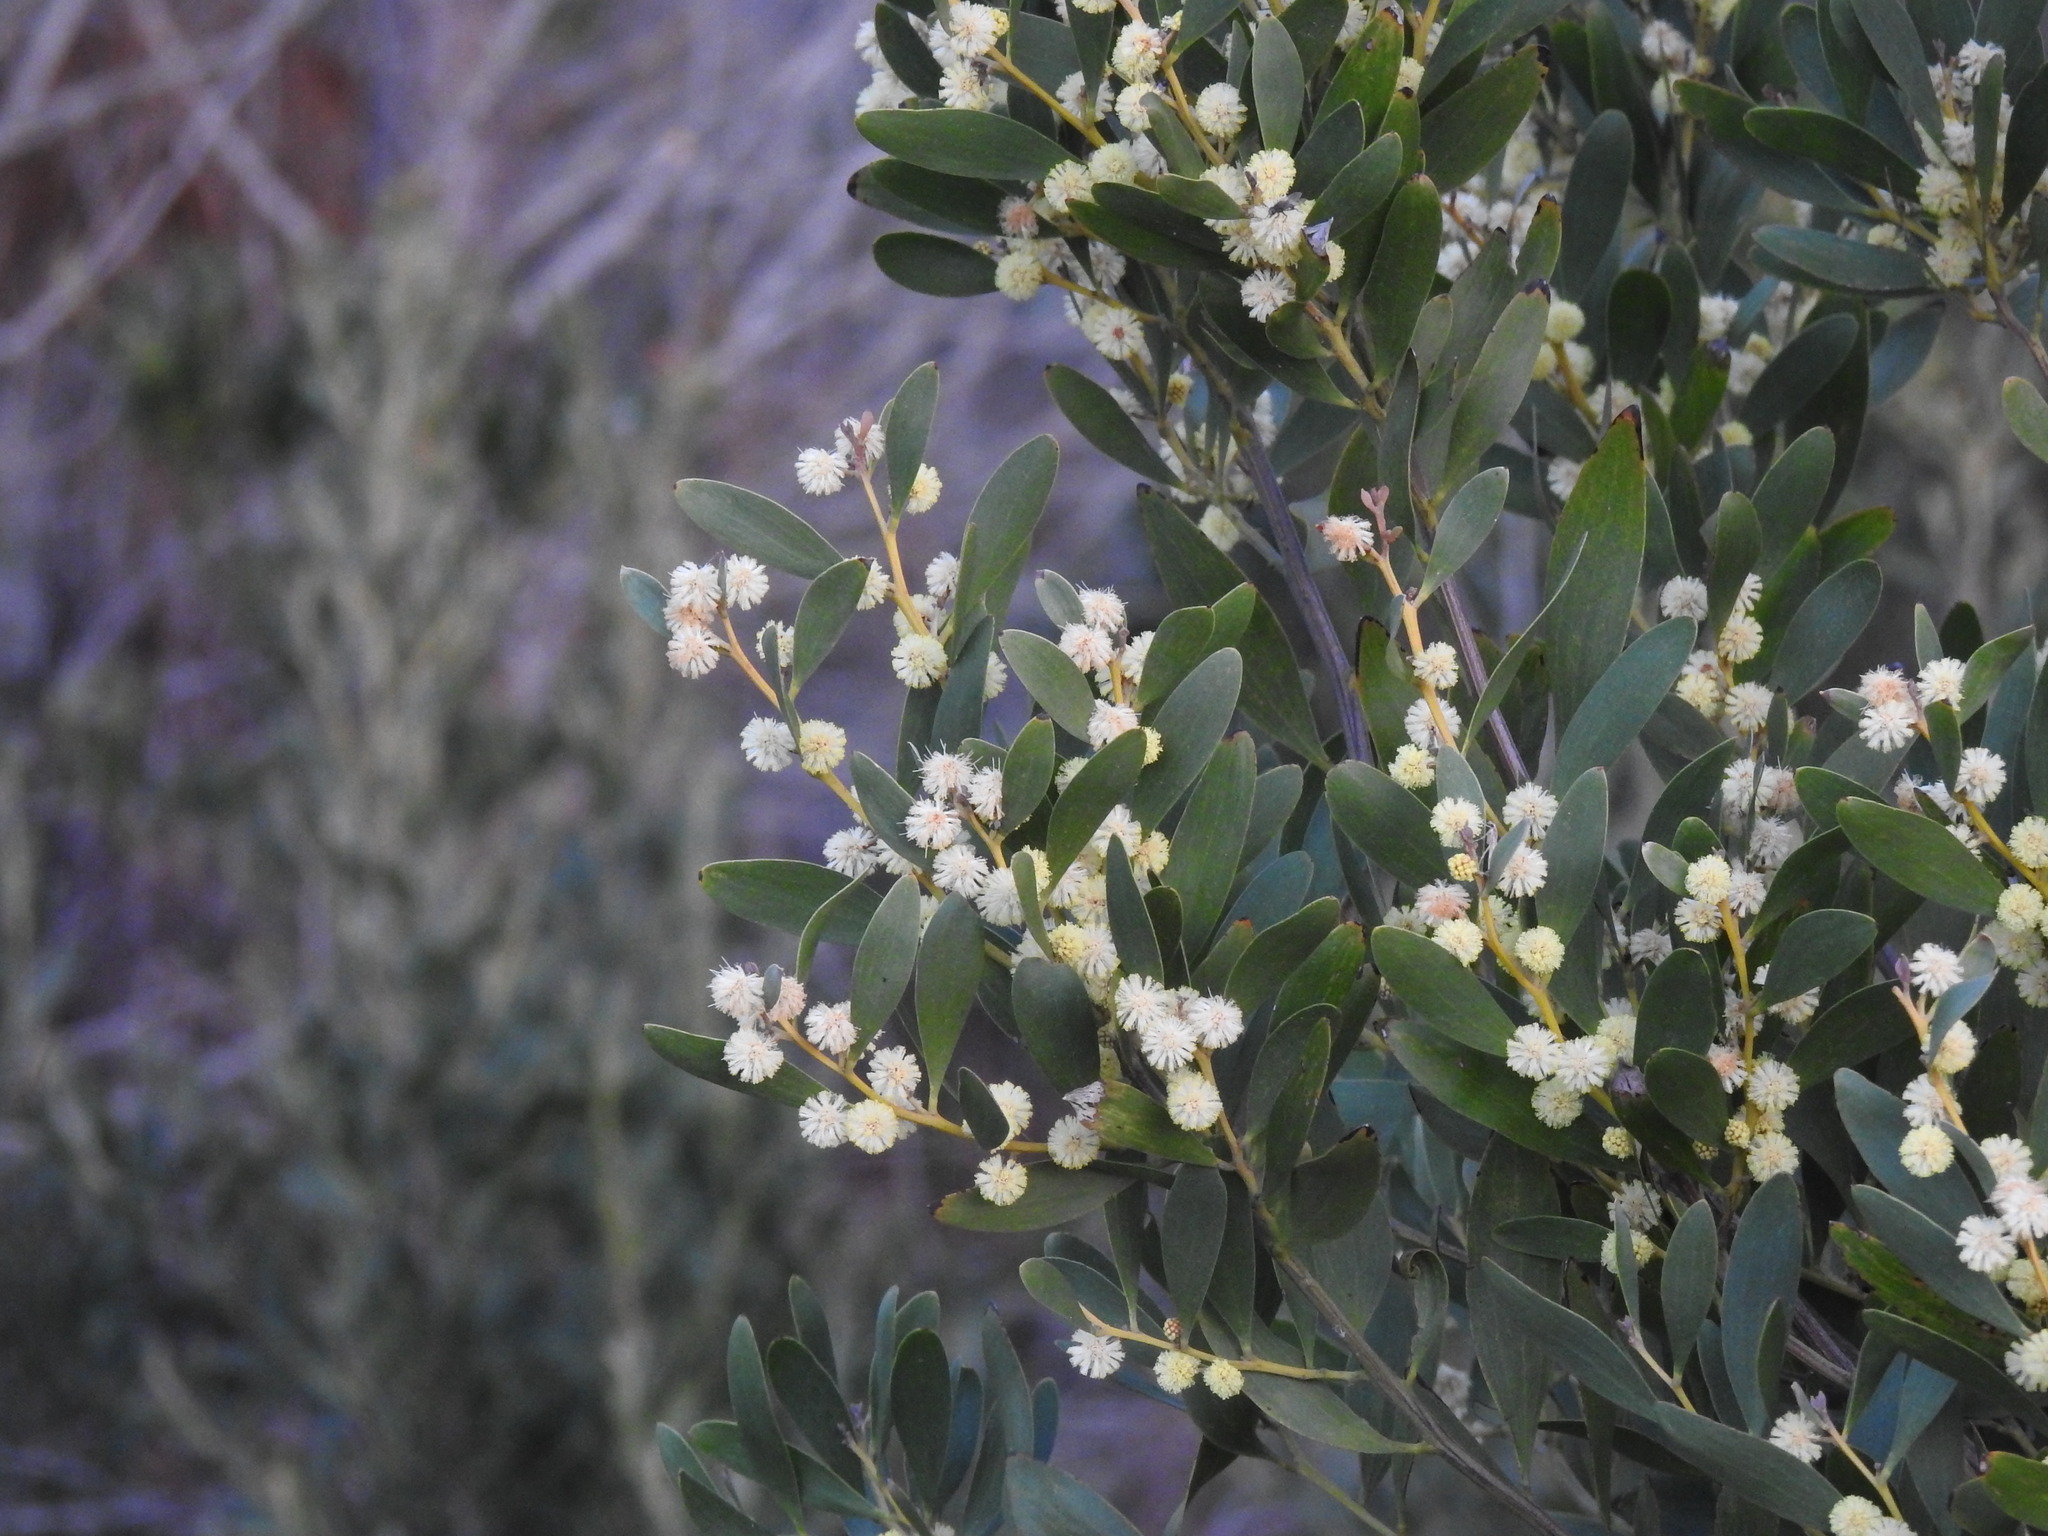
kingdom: Plantae
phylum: Tracheophyta
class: Magnoliopsida
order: Fabales
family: Fabaceae
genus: Acacia
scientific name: Acacia melanoxylon
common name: Blackwood
